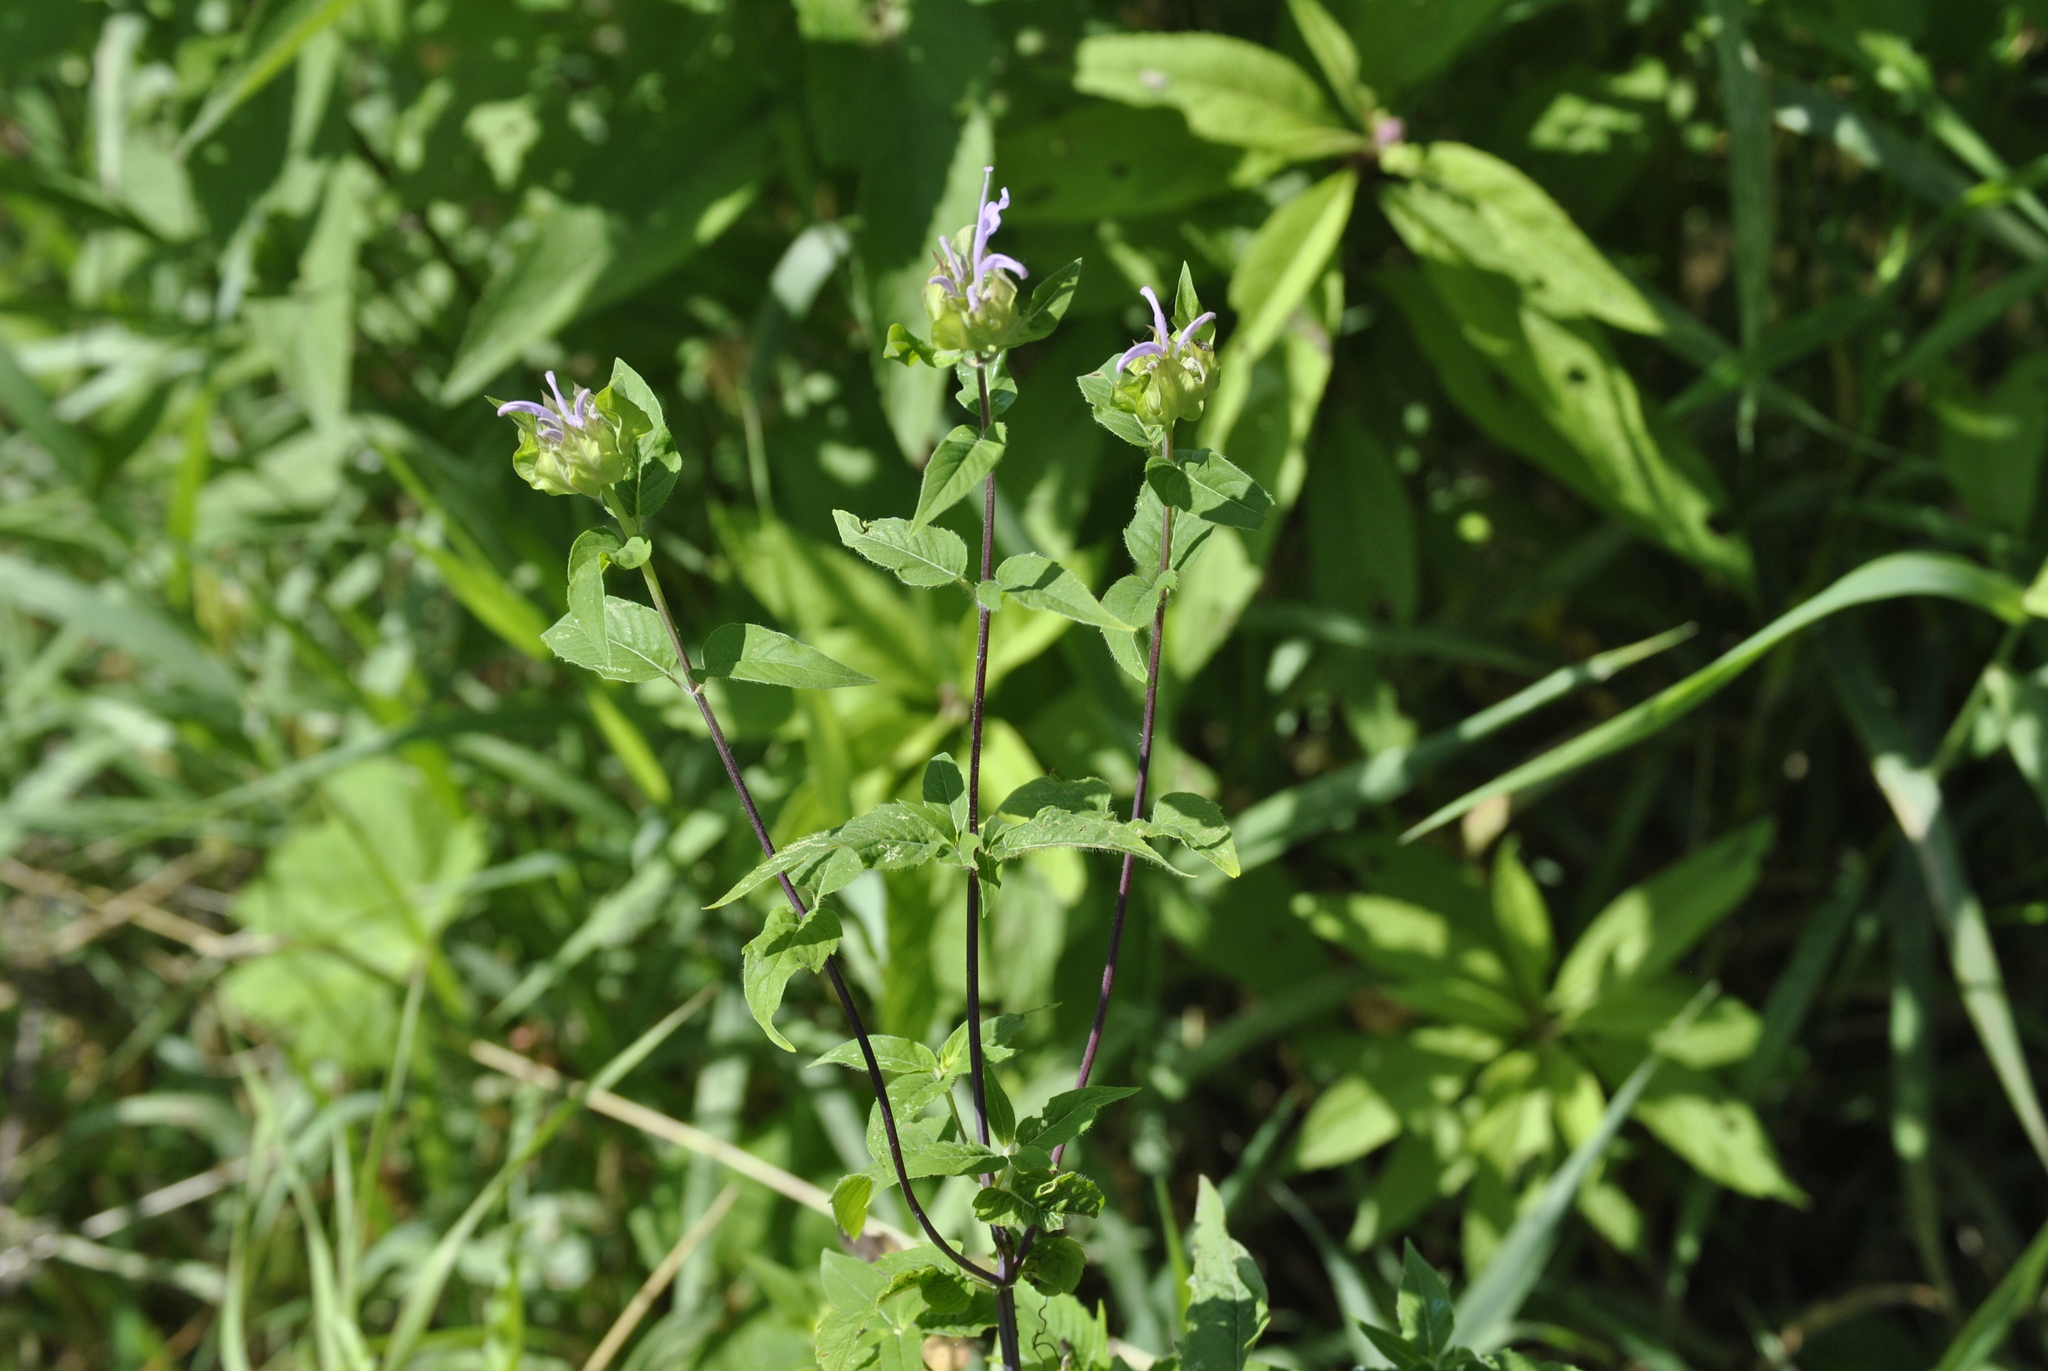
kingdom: Plantae
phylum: Tracheophyta
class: Magnoliopsida
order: Lamiales
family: Lamiaceae
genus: Monarda
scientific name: Monarda fistulosa
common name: Purple beebalm
